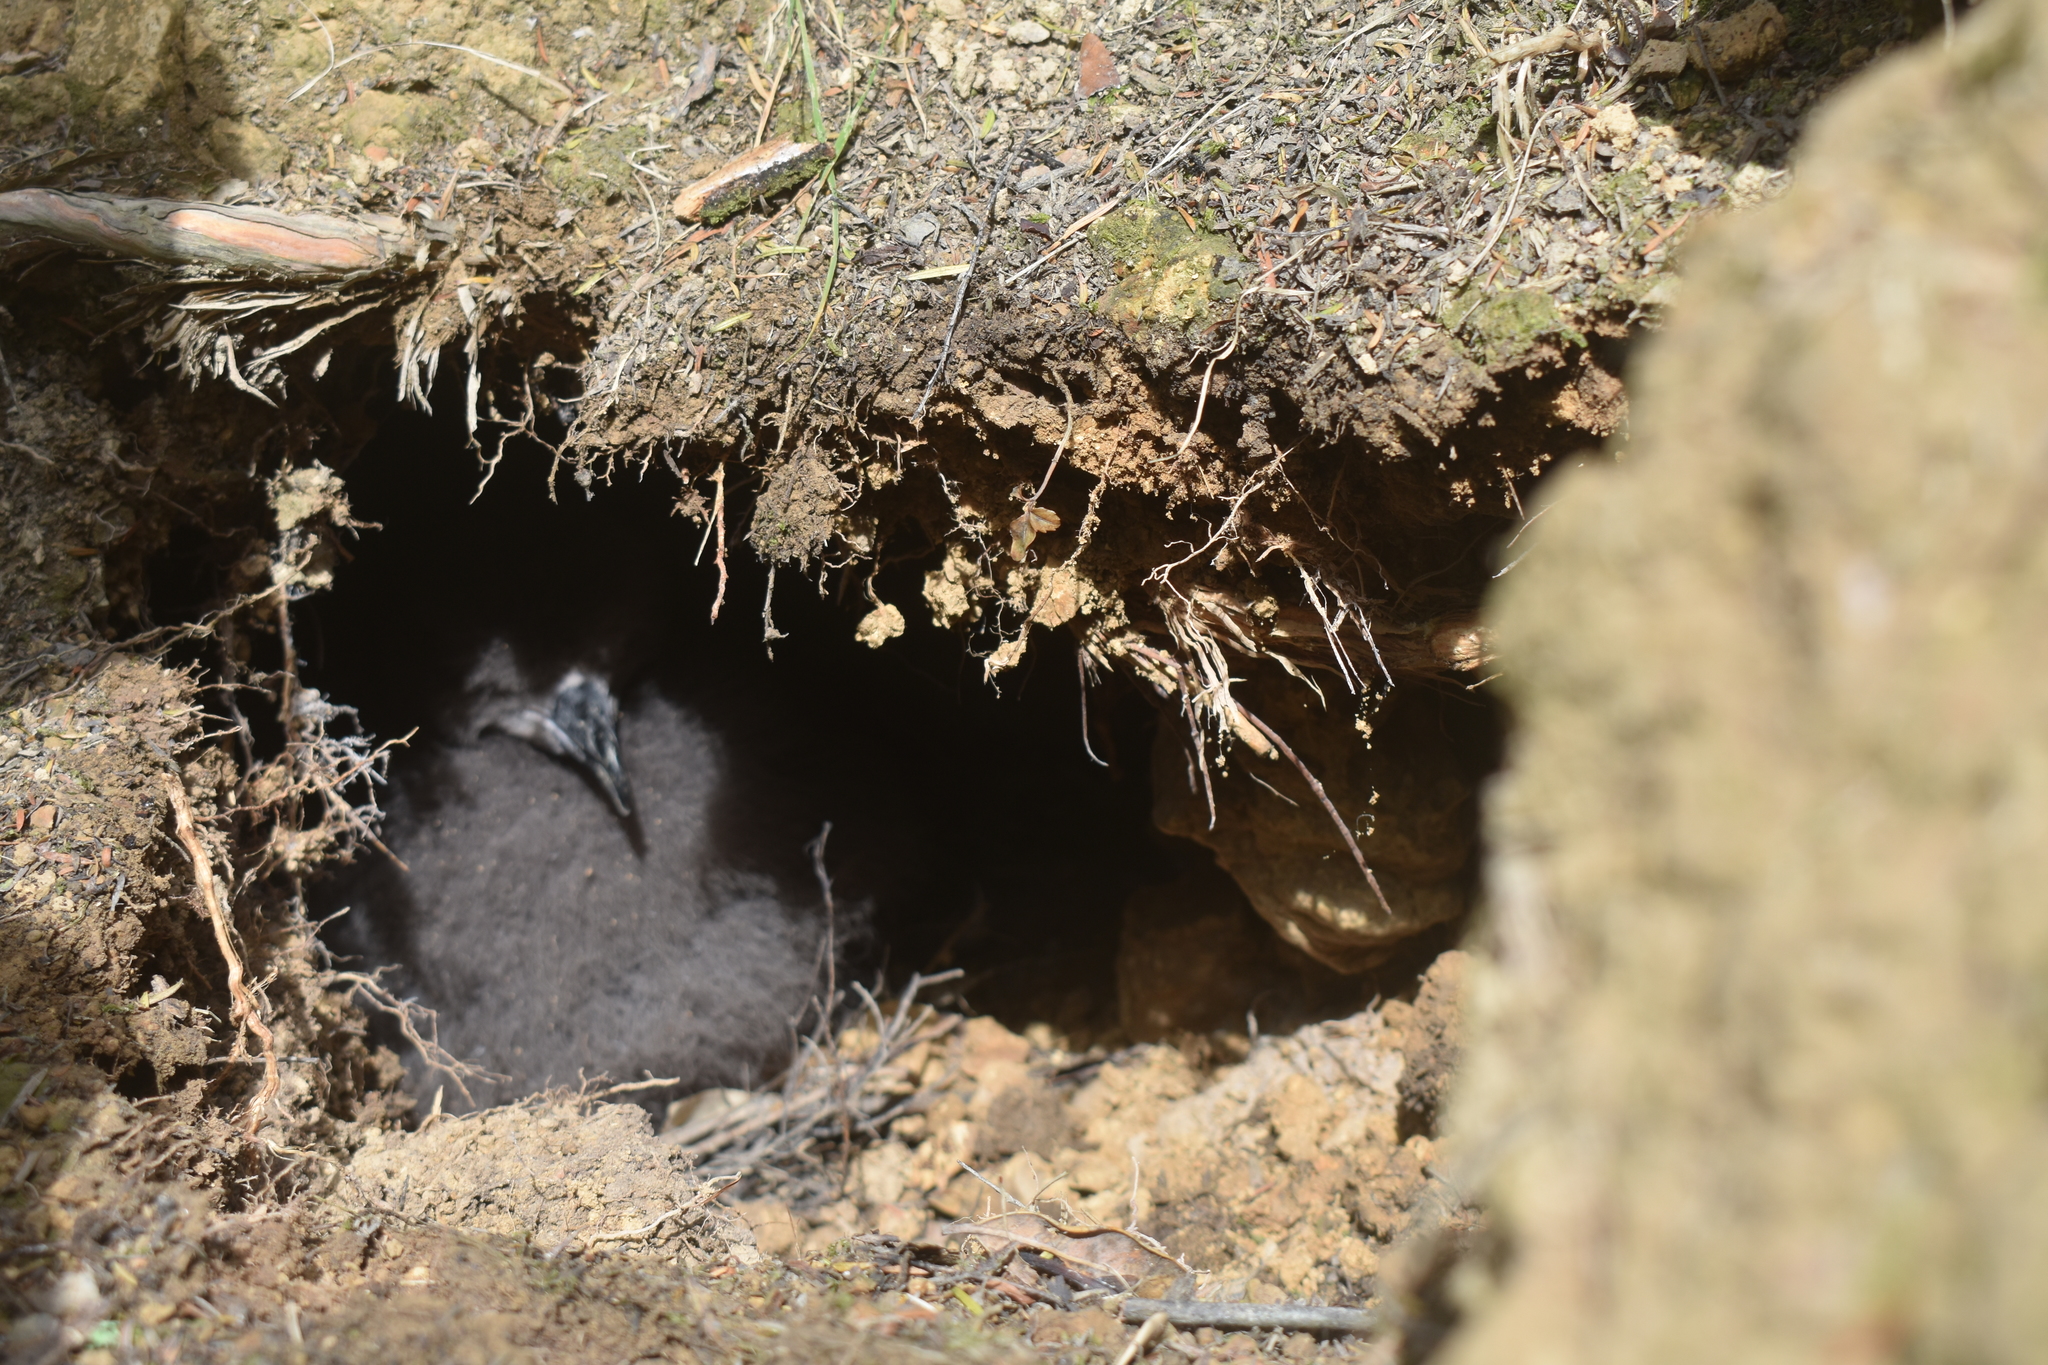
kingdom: Animalia
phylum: Chordata
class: Aves
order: Procellariiformes
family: Procellariidae
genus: Pterodroma
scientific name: Pterodroma macroptera
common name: Great-winged petrel
